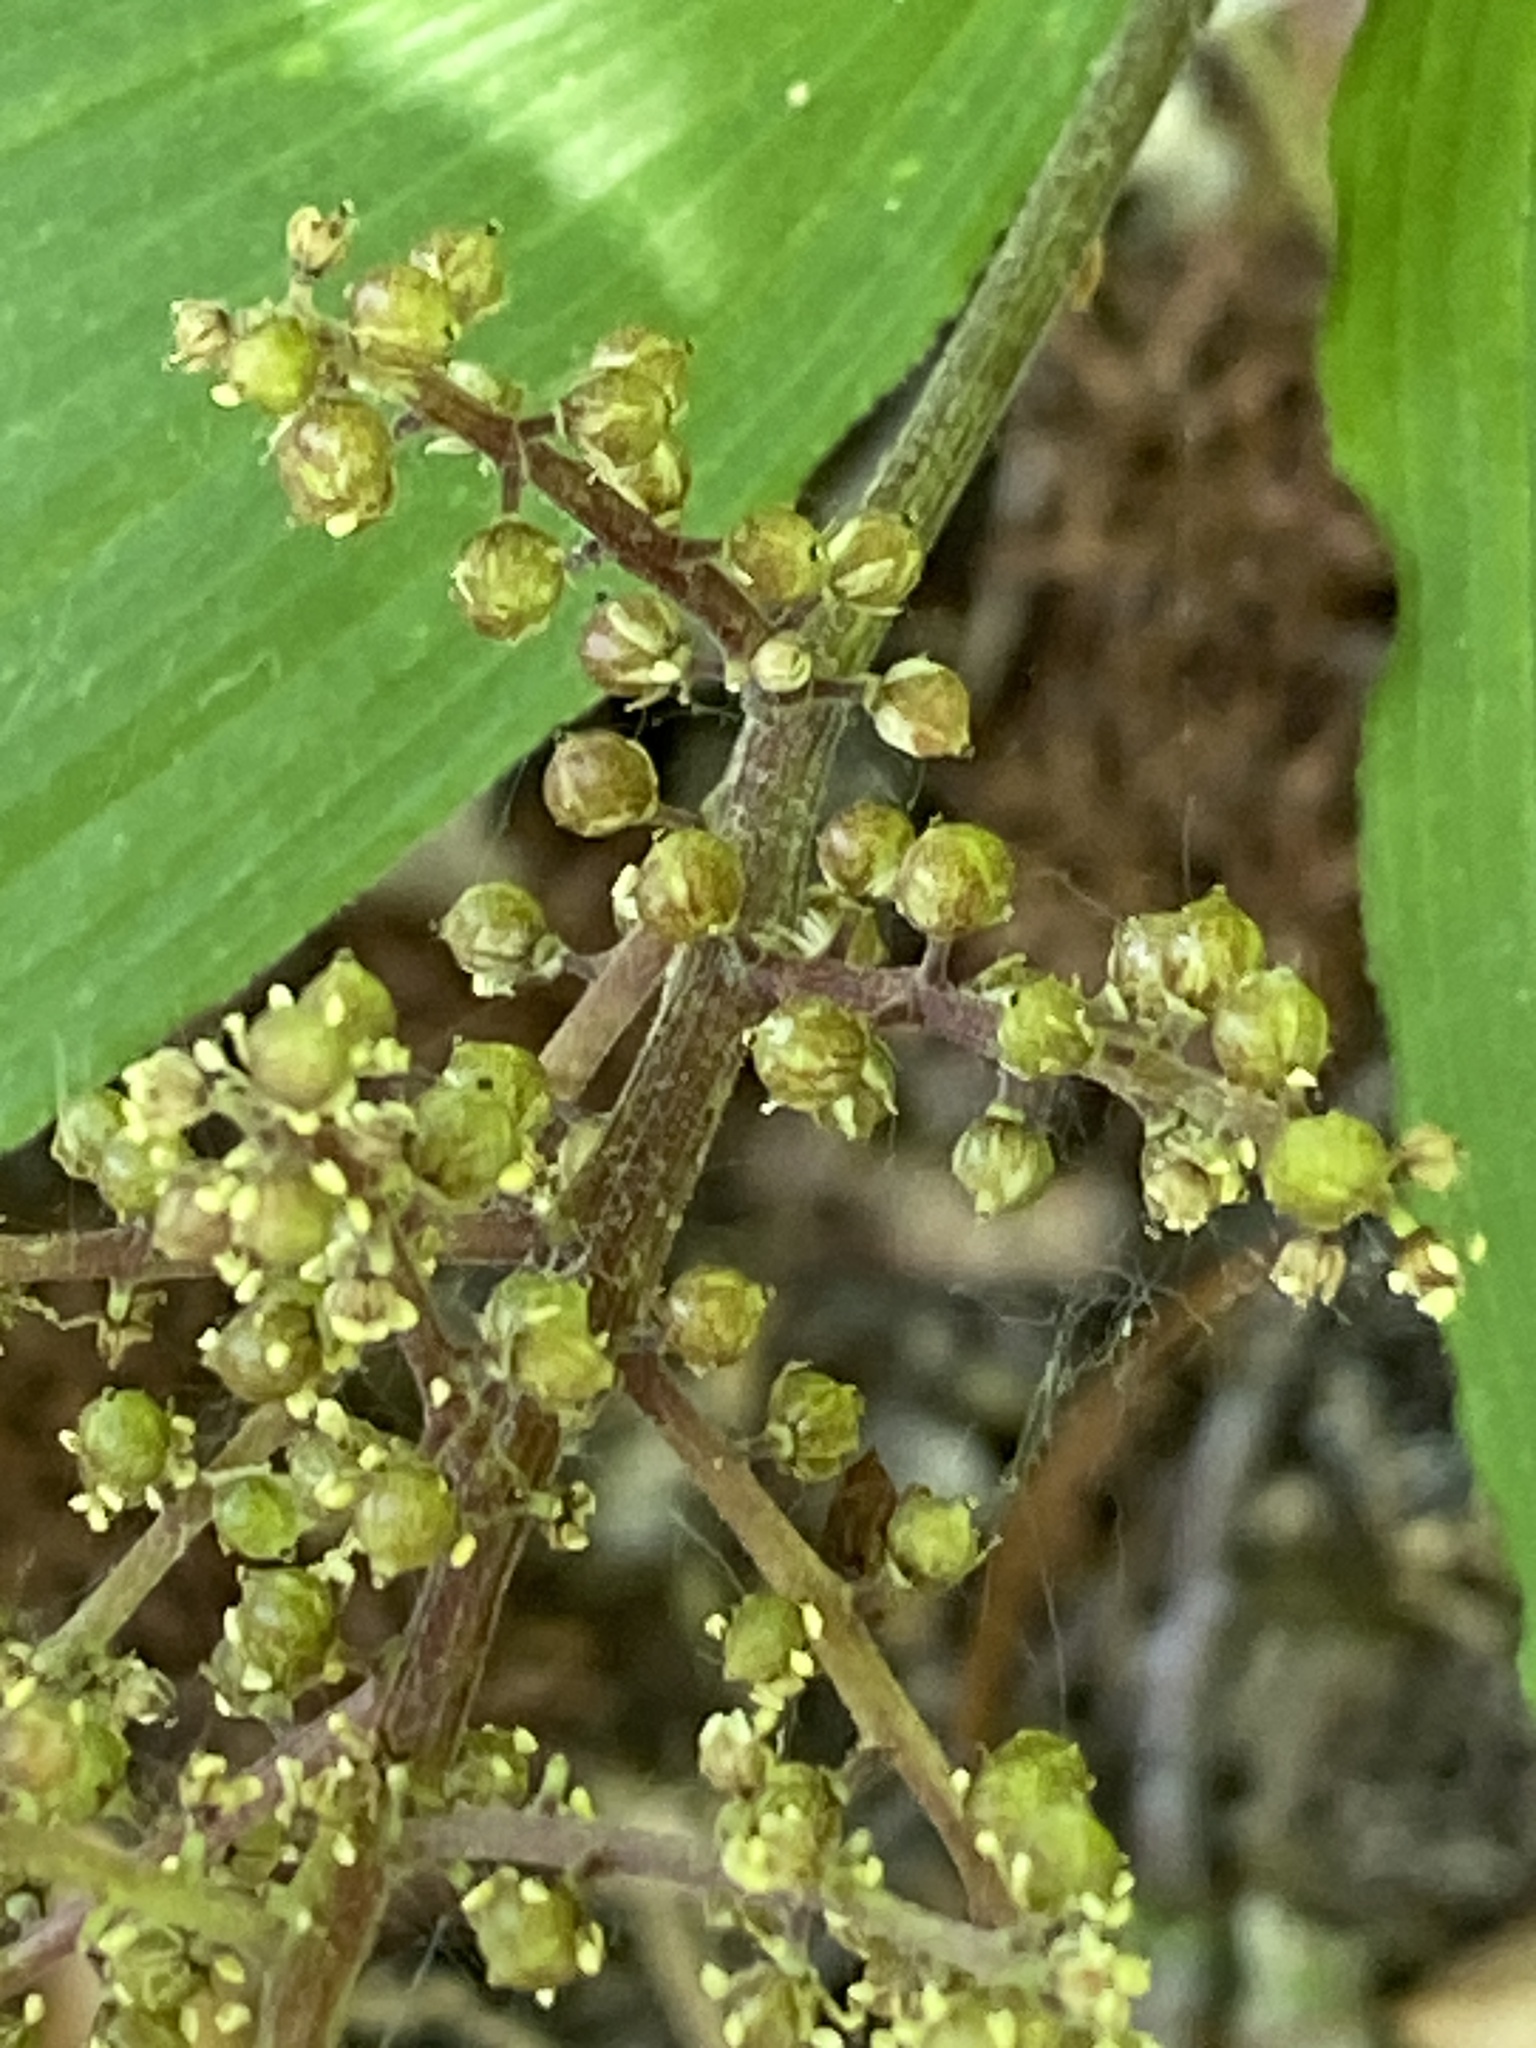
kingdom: Plantae
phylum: Tracheophyta
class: Liliopsida
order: Asparagales
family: Asparagaceae
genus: Maianthemum
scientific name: Maianthemum racemosum
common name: False spikenard
